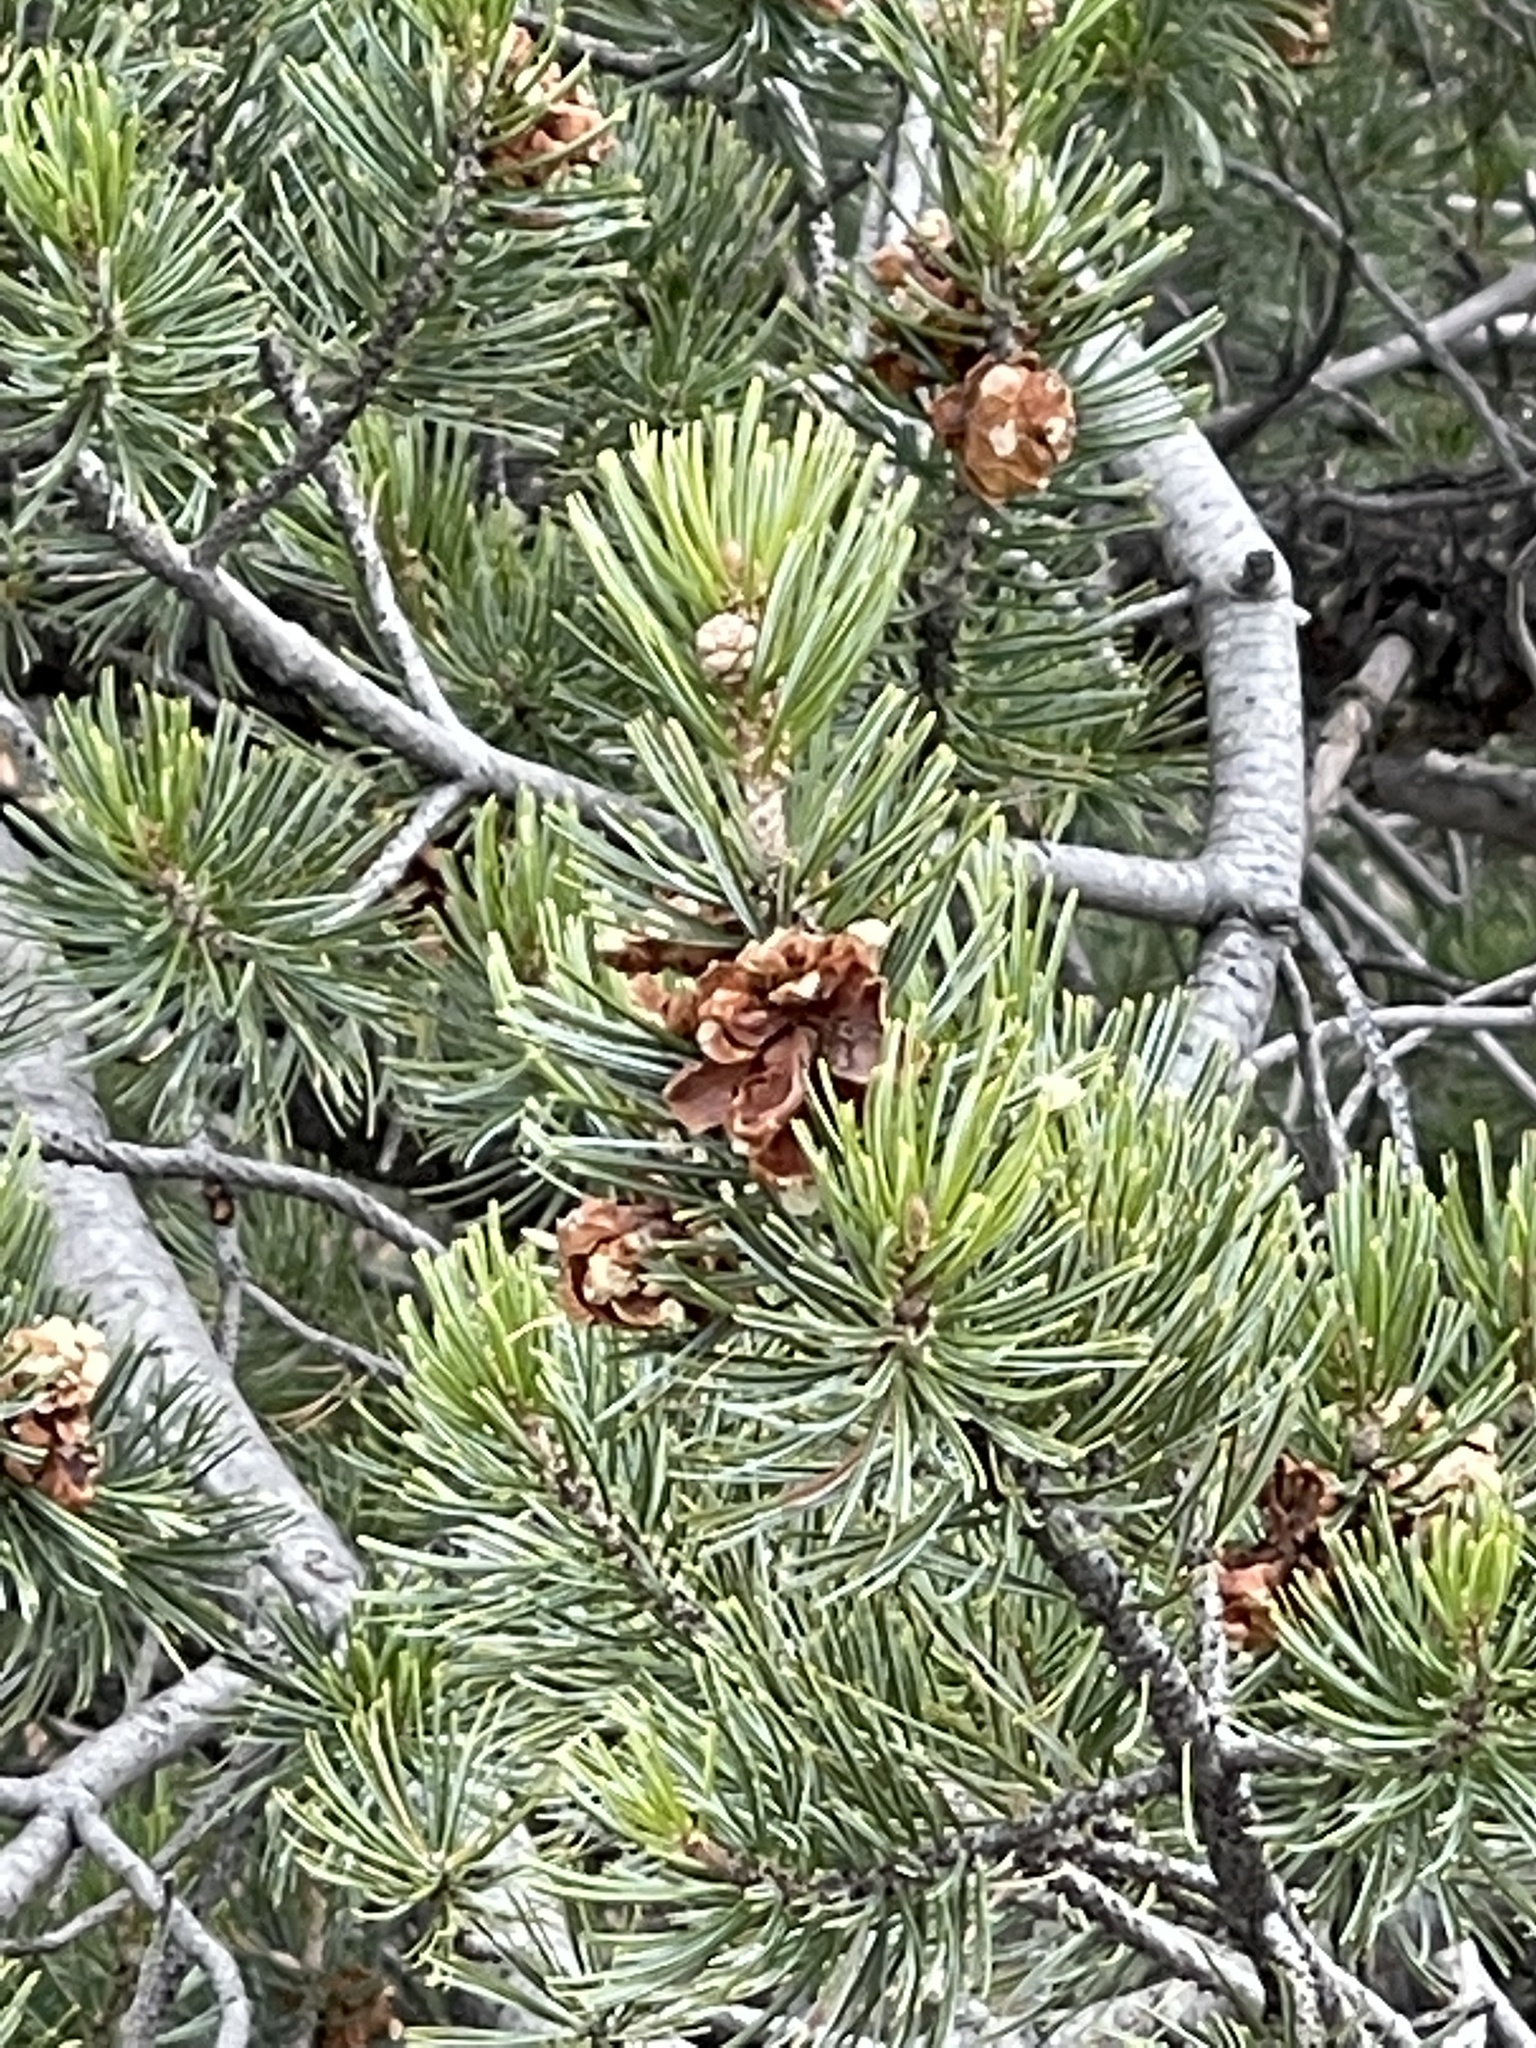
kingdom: Plantae
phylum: Tracheophyta
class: Pinopsida
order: Pinales
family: Pinaceae
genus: Pinus
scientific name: Pinus cembroides
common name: Mexican nut pine
